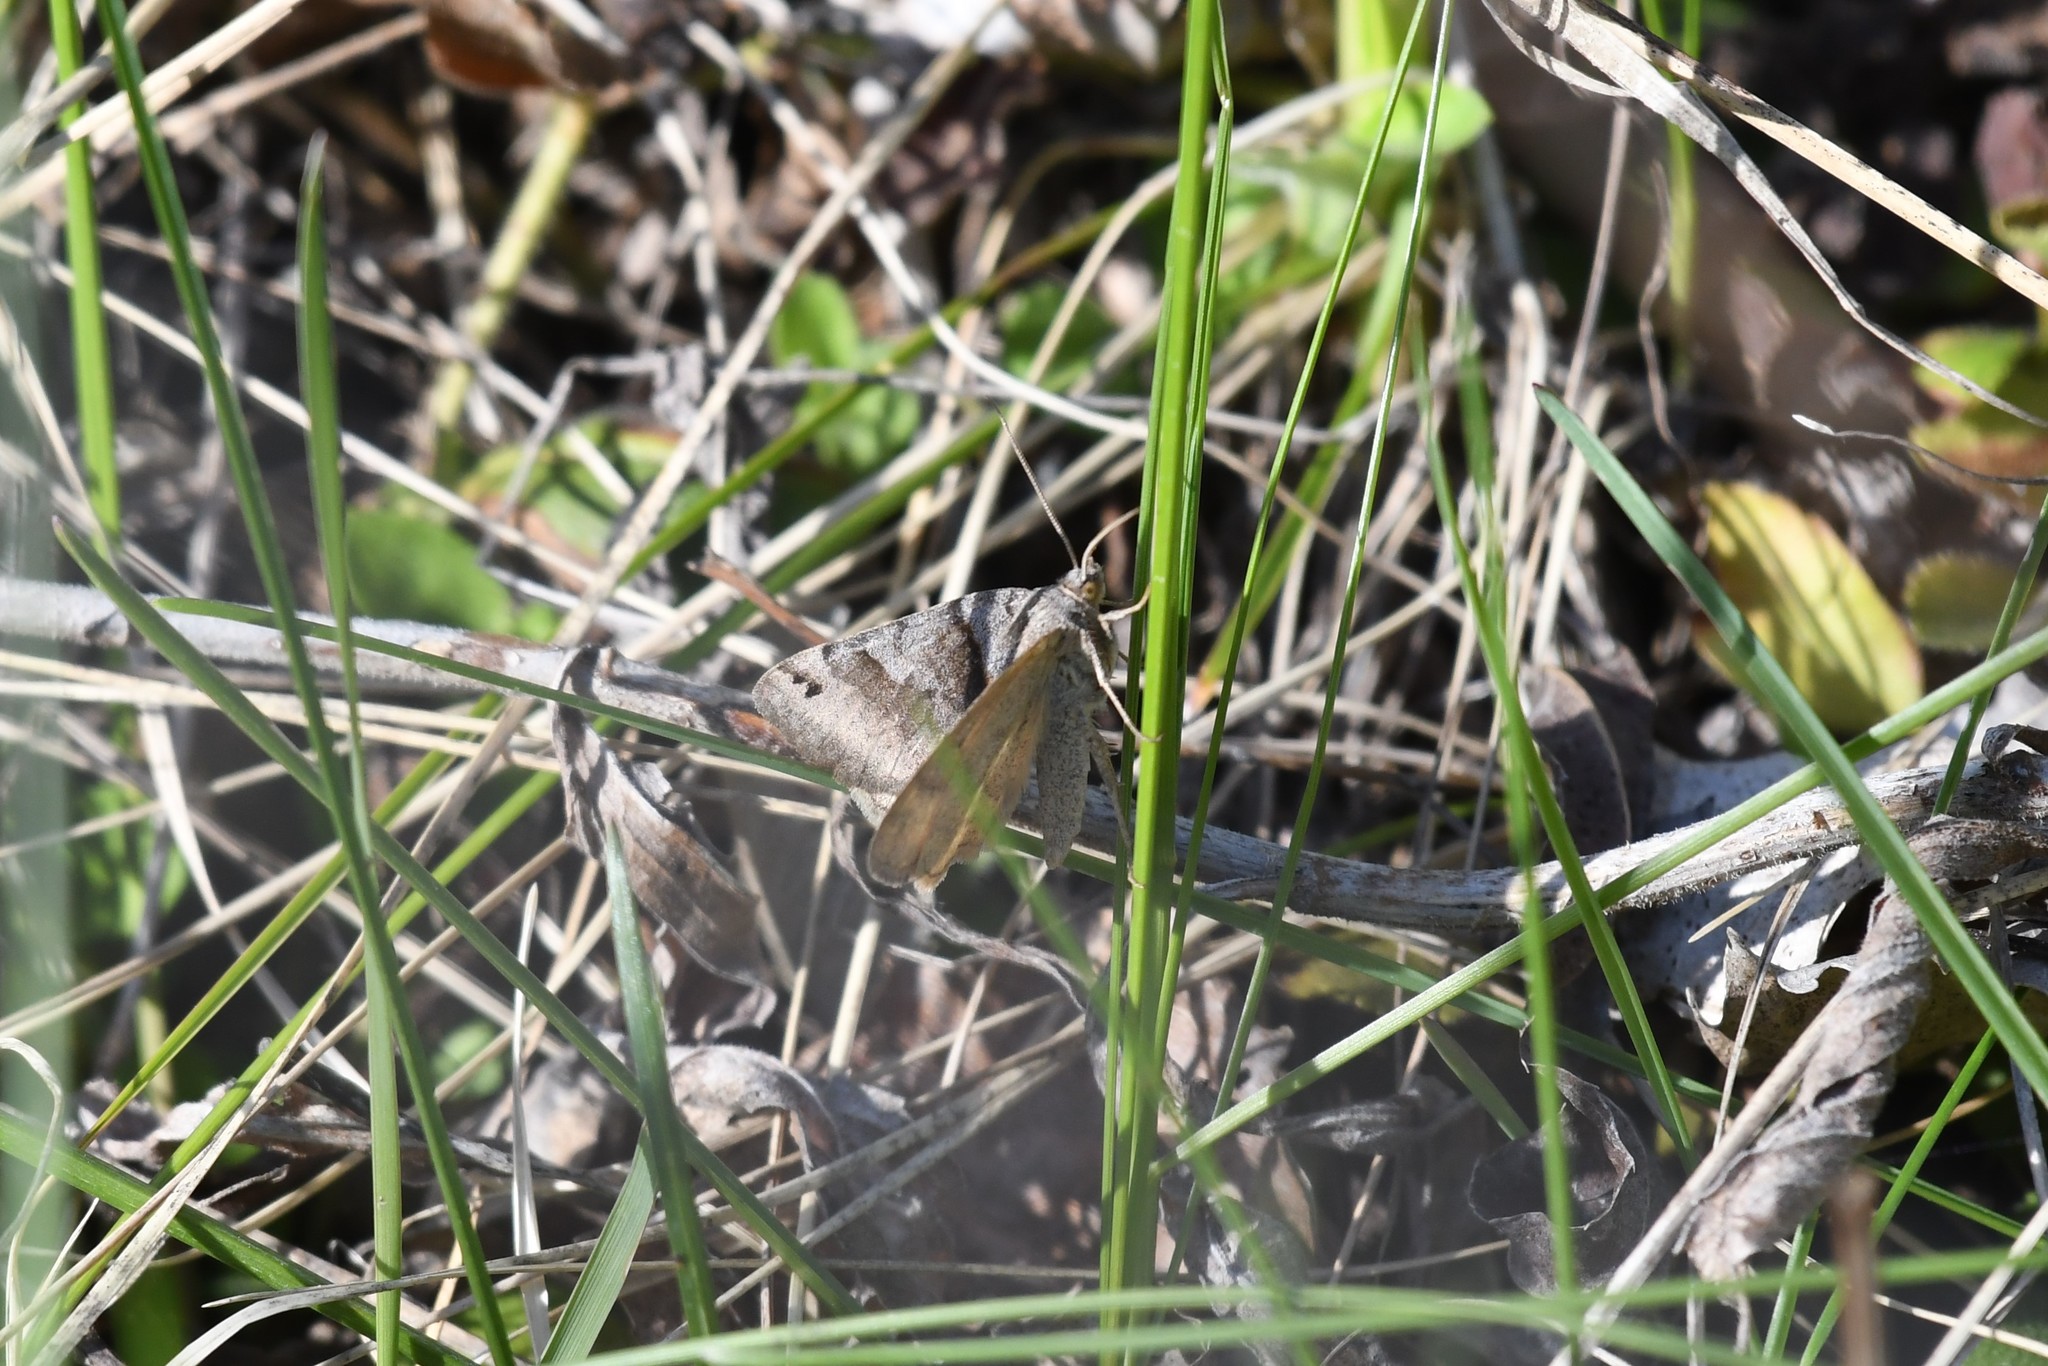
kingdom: Animalia
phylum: Arthropoda
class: Insecta
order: Lepidoptera
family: Erebidae
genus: Caenurgina
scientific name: Caenurgina crassiuscula
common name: Double-barred
